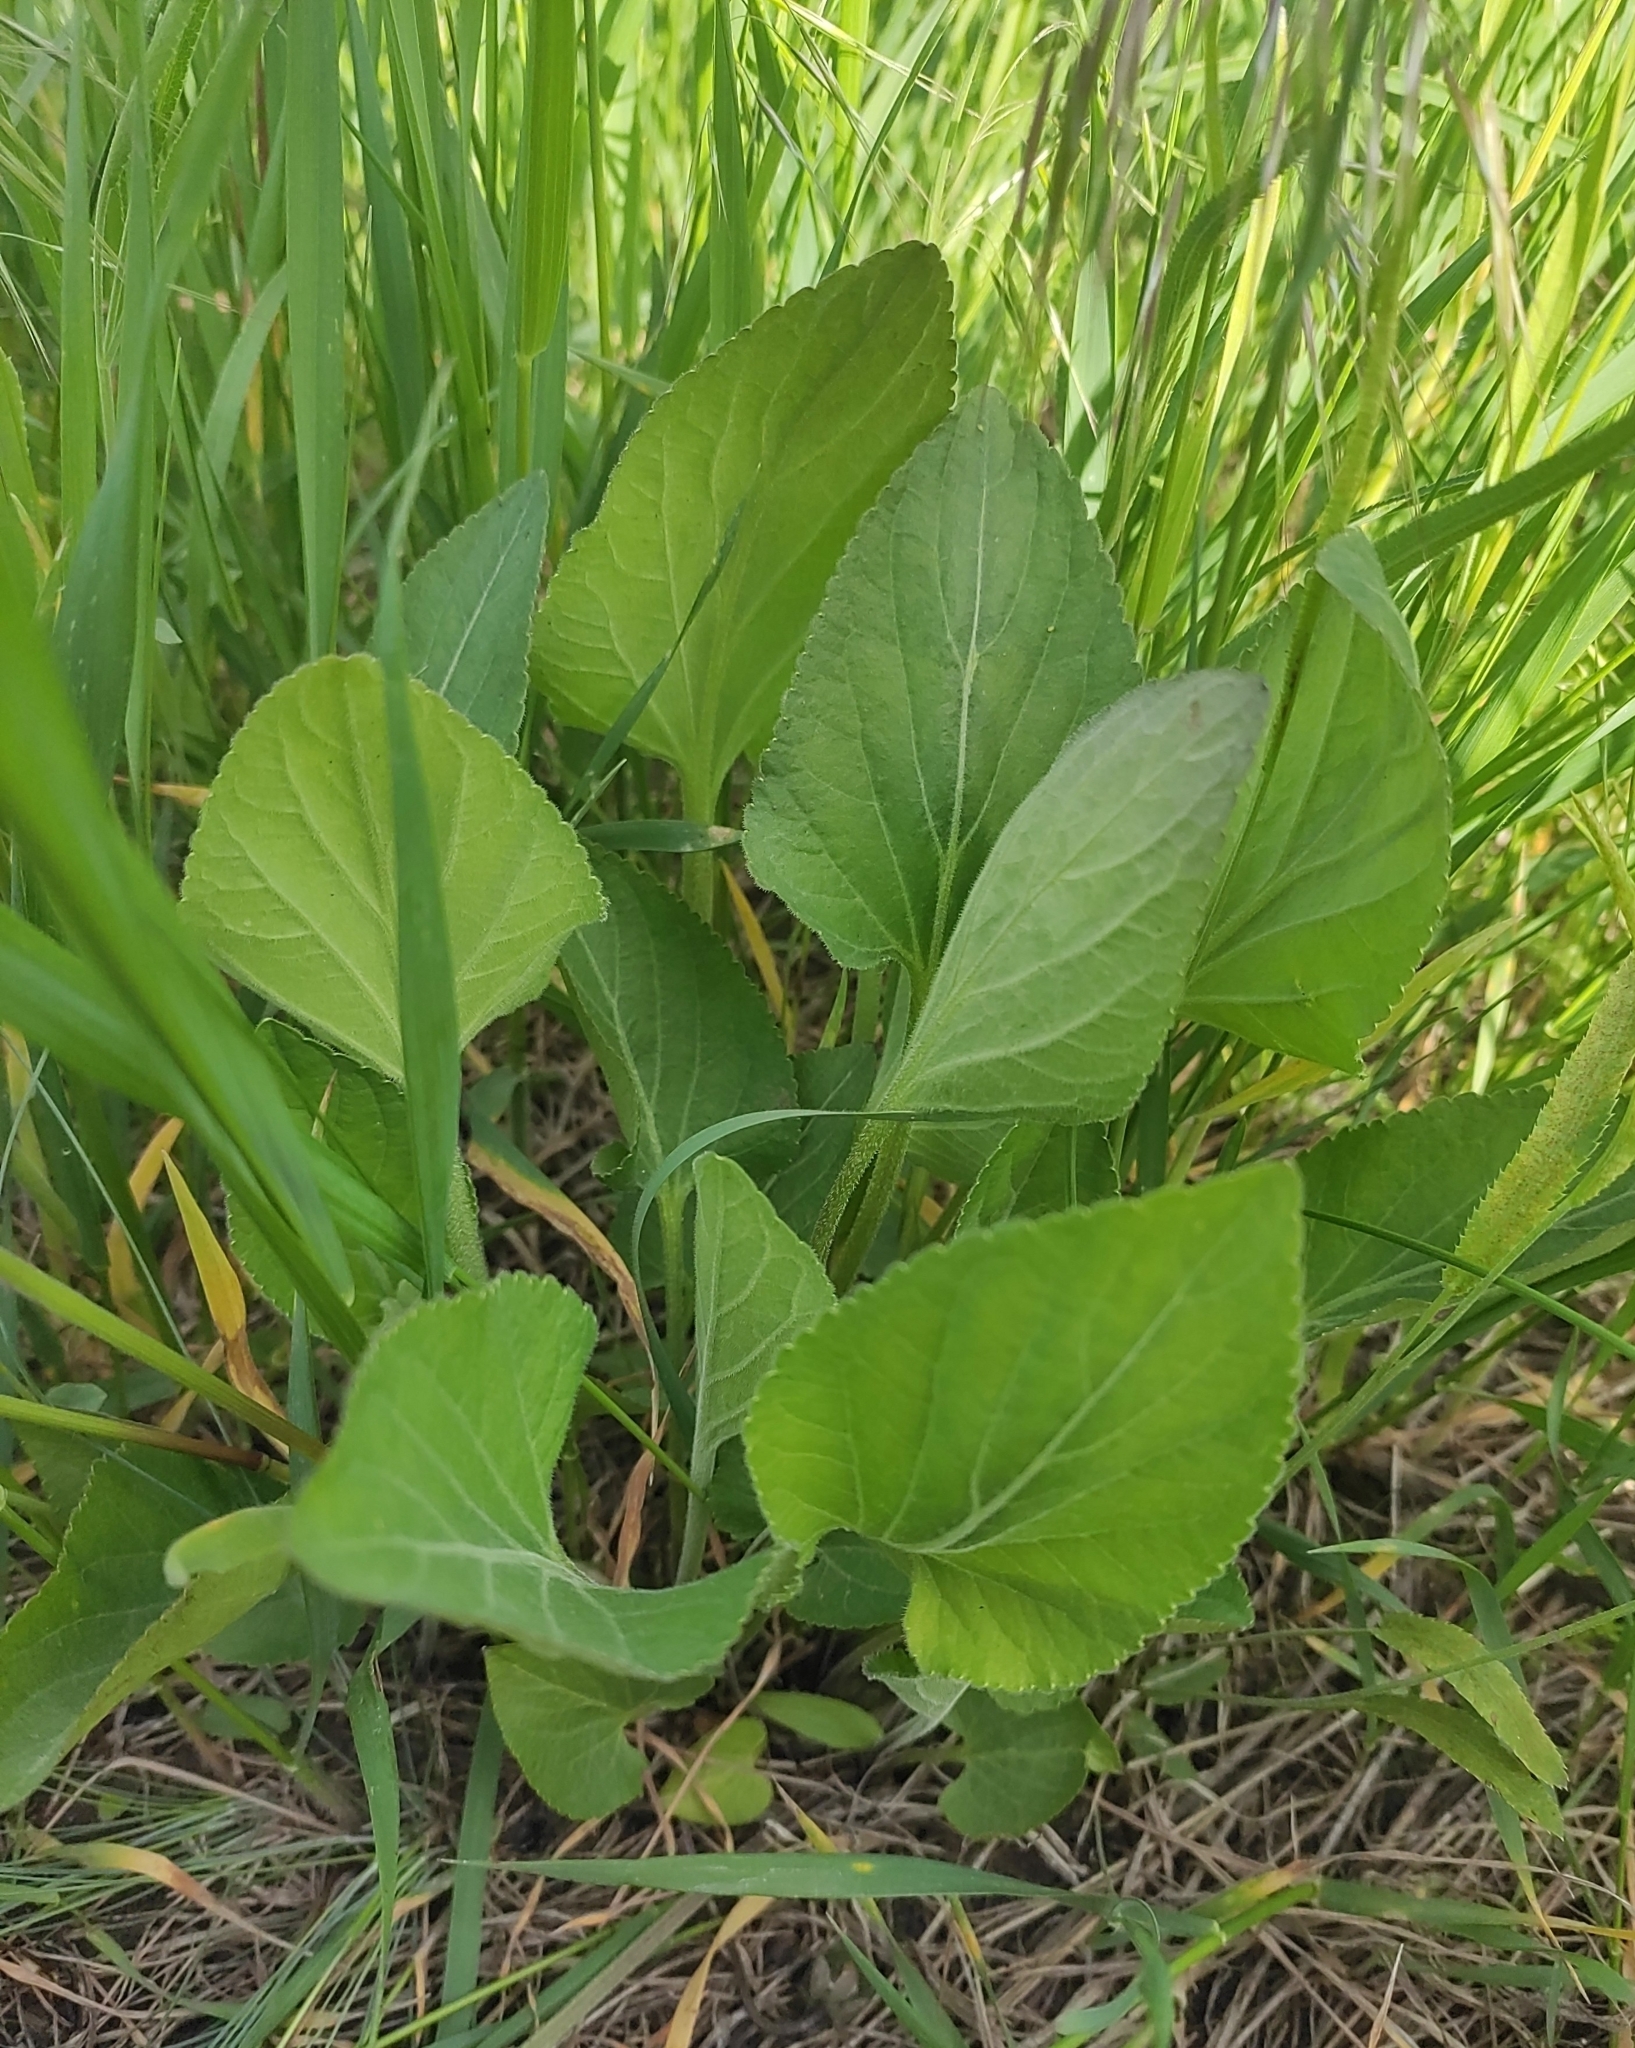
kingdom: Plantae
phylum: Tracheophyta
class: Magnoliopsida
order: Malpighiales
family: Violaceae
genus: Viola
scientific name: Viola ambigua
